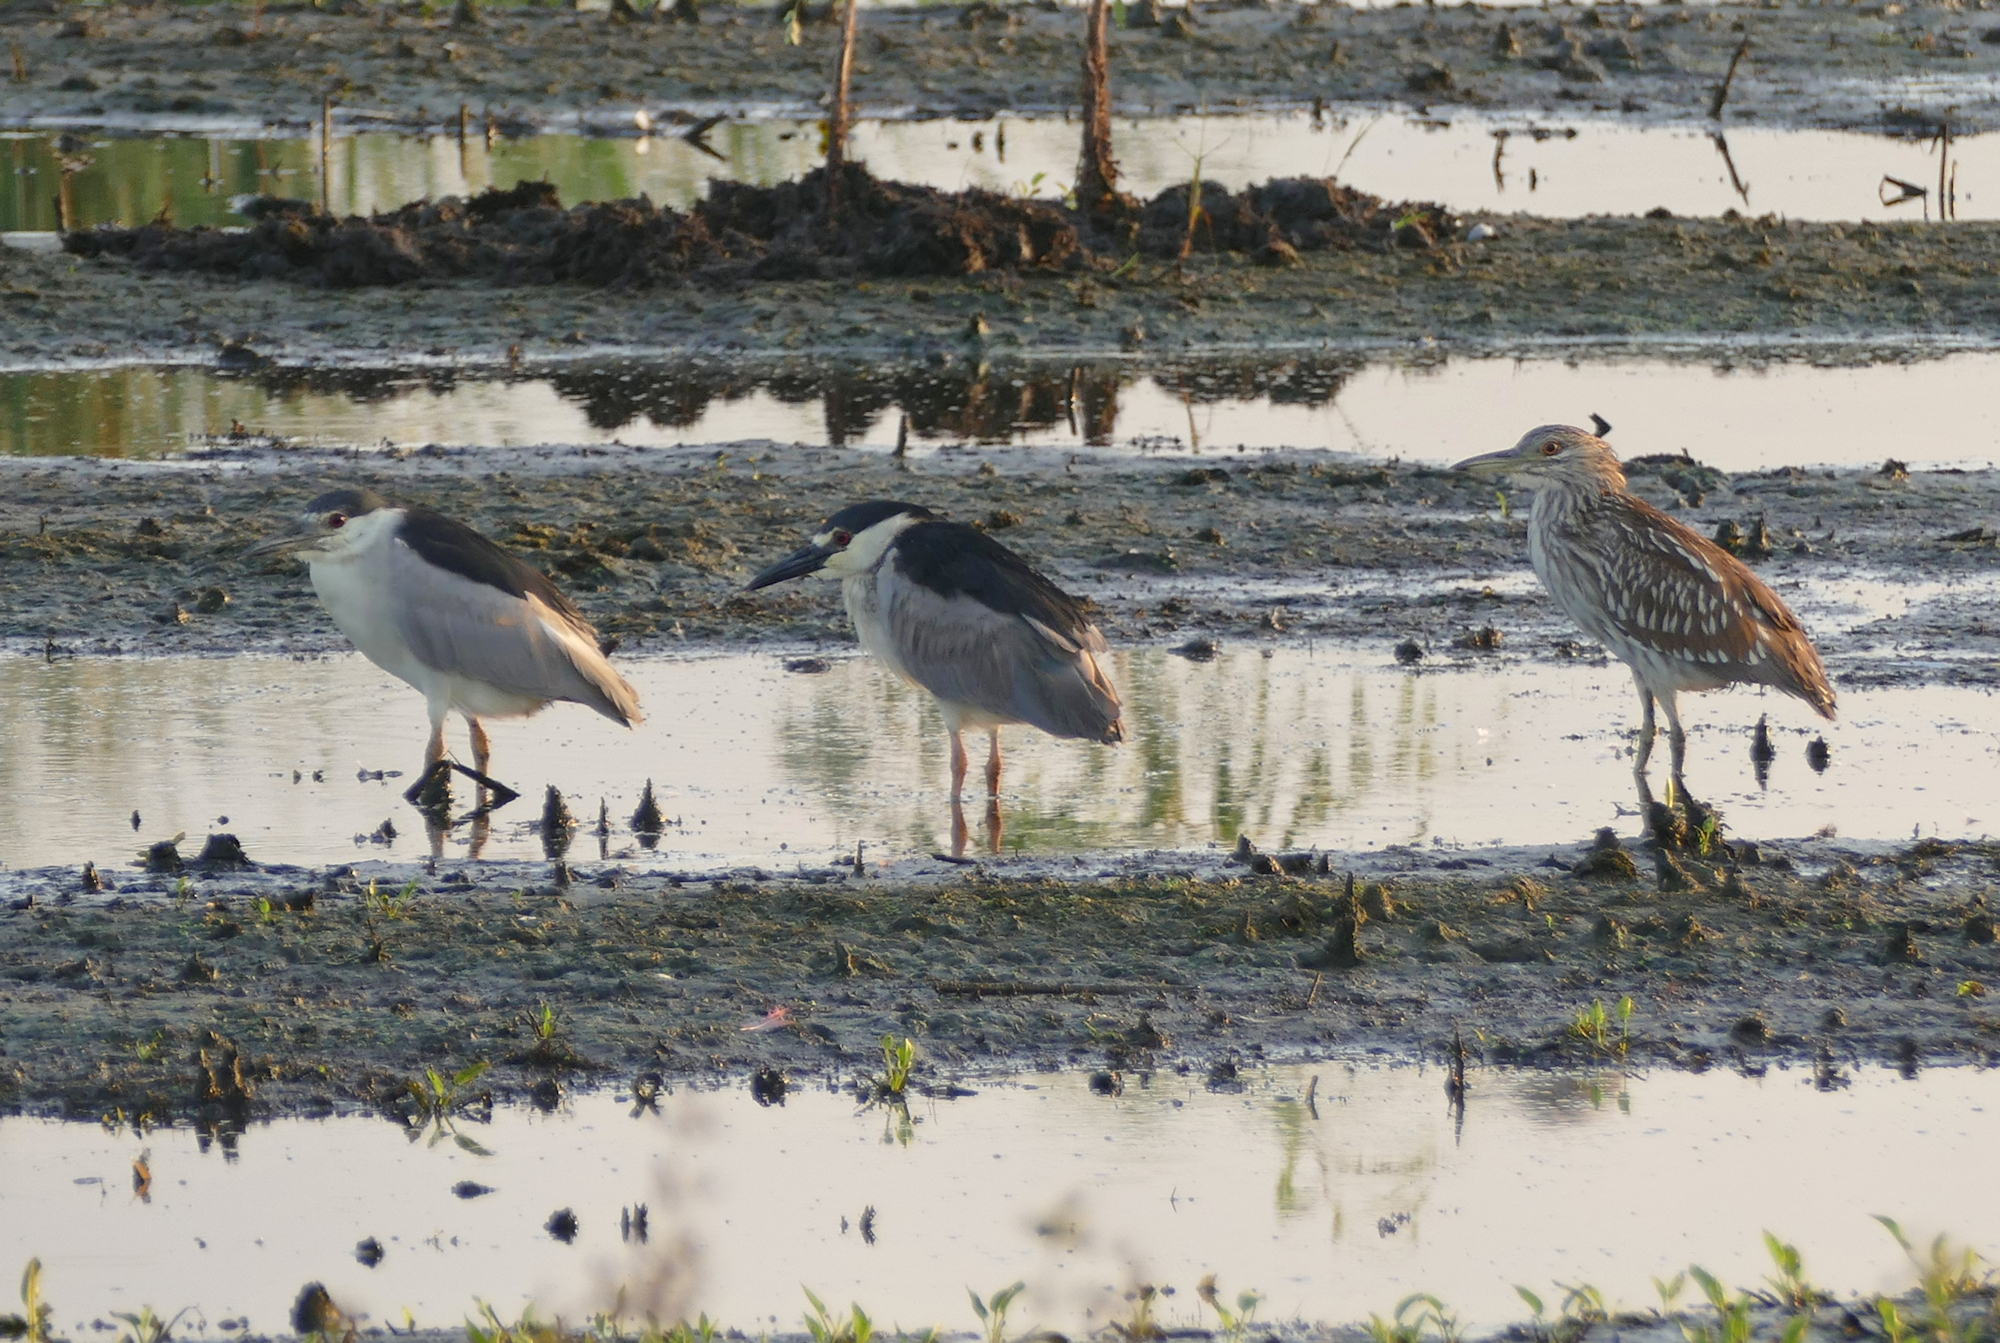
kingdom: Animalia
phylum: Chordata
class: Aves
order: Pelecaniformes
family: Ardeidae
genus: Nycticorax
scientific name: Nycticorax nycticorax
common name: Black-crowned night heron
